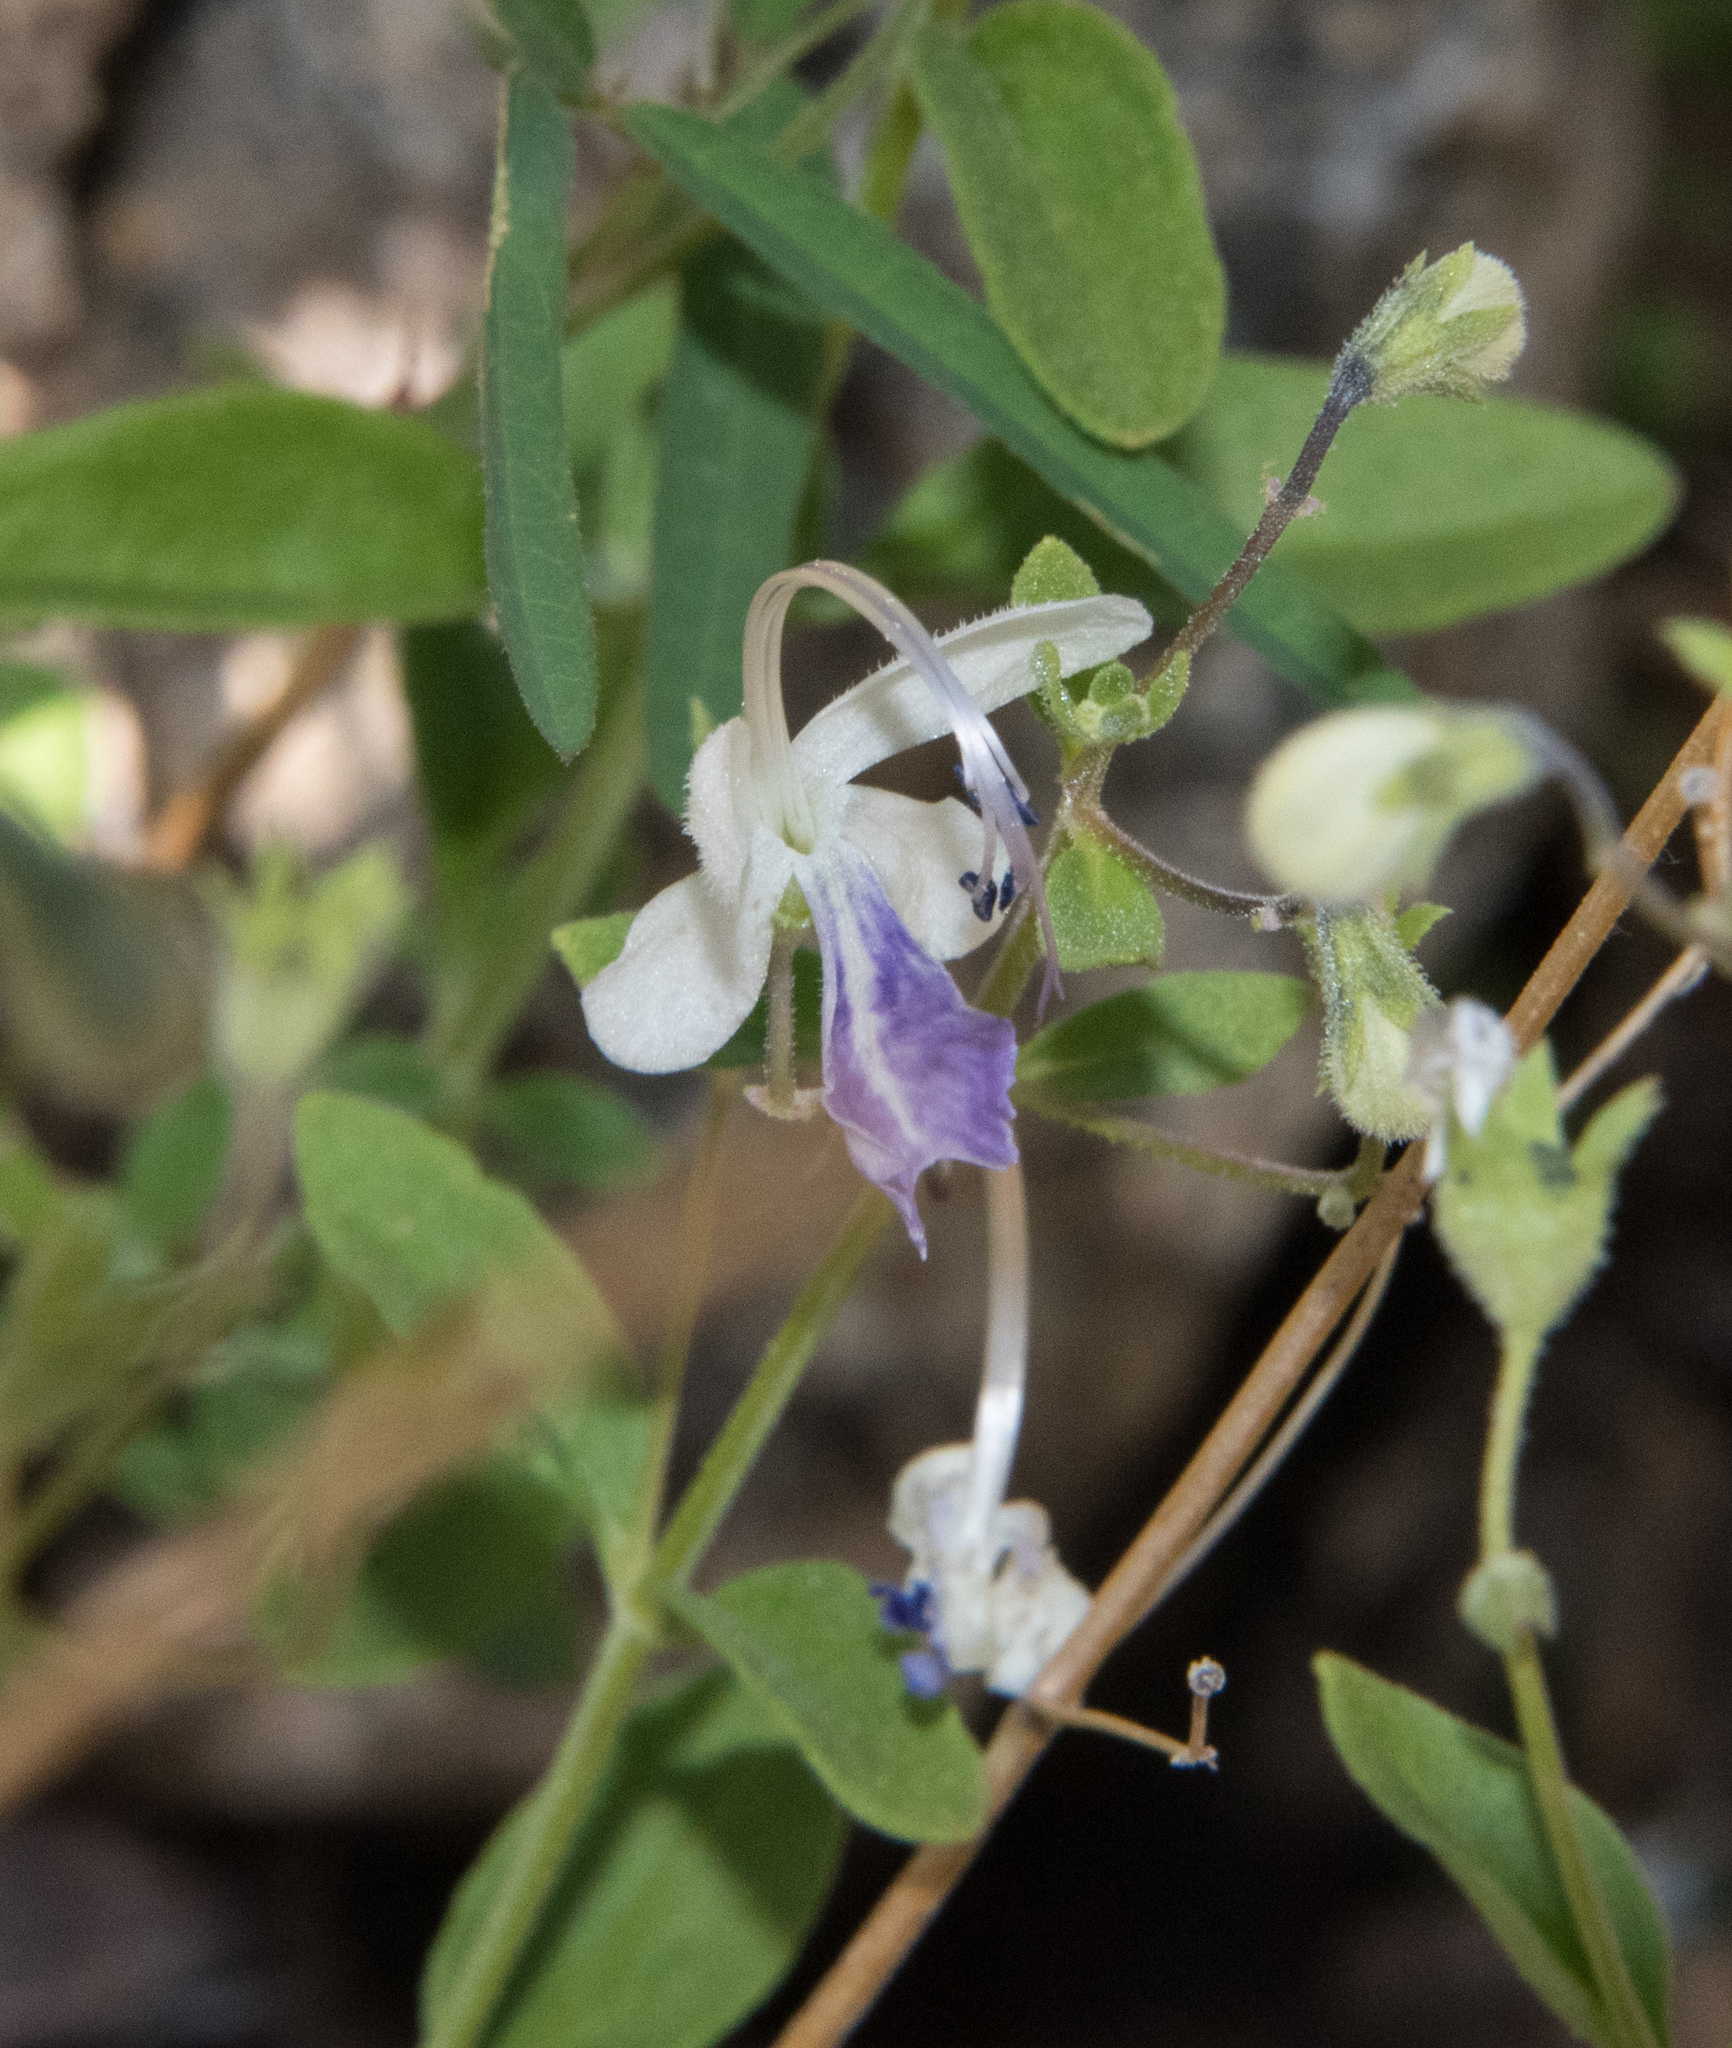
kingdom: Plantae
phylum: Tracheophyta
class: Magnoliopsida
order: Lamiales
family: Lamiaceae
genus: Trichostema
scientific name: Trichostema arizonicum
